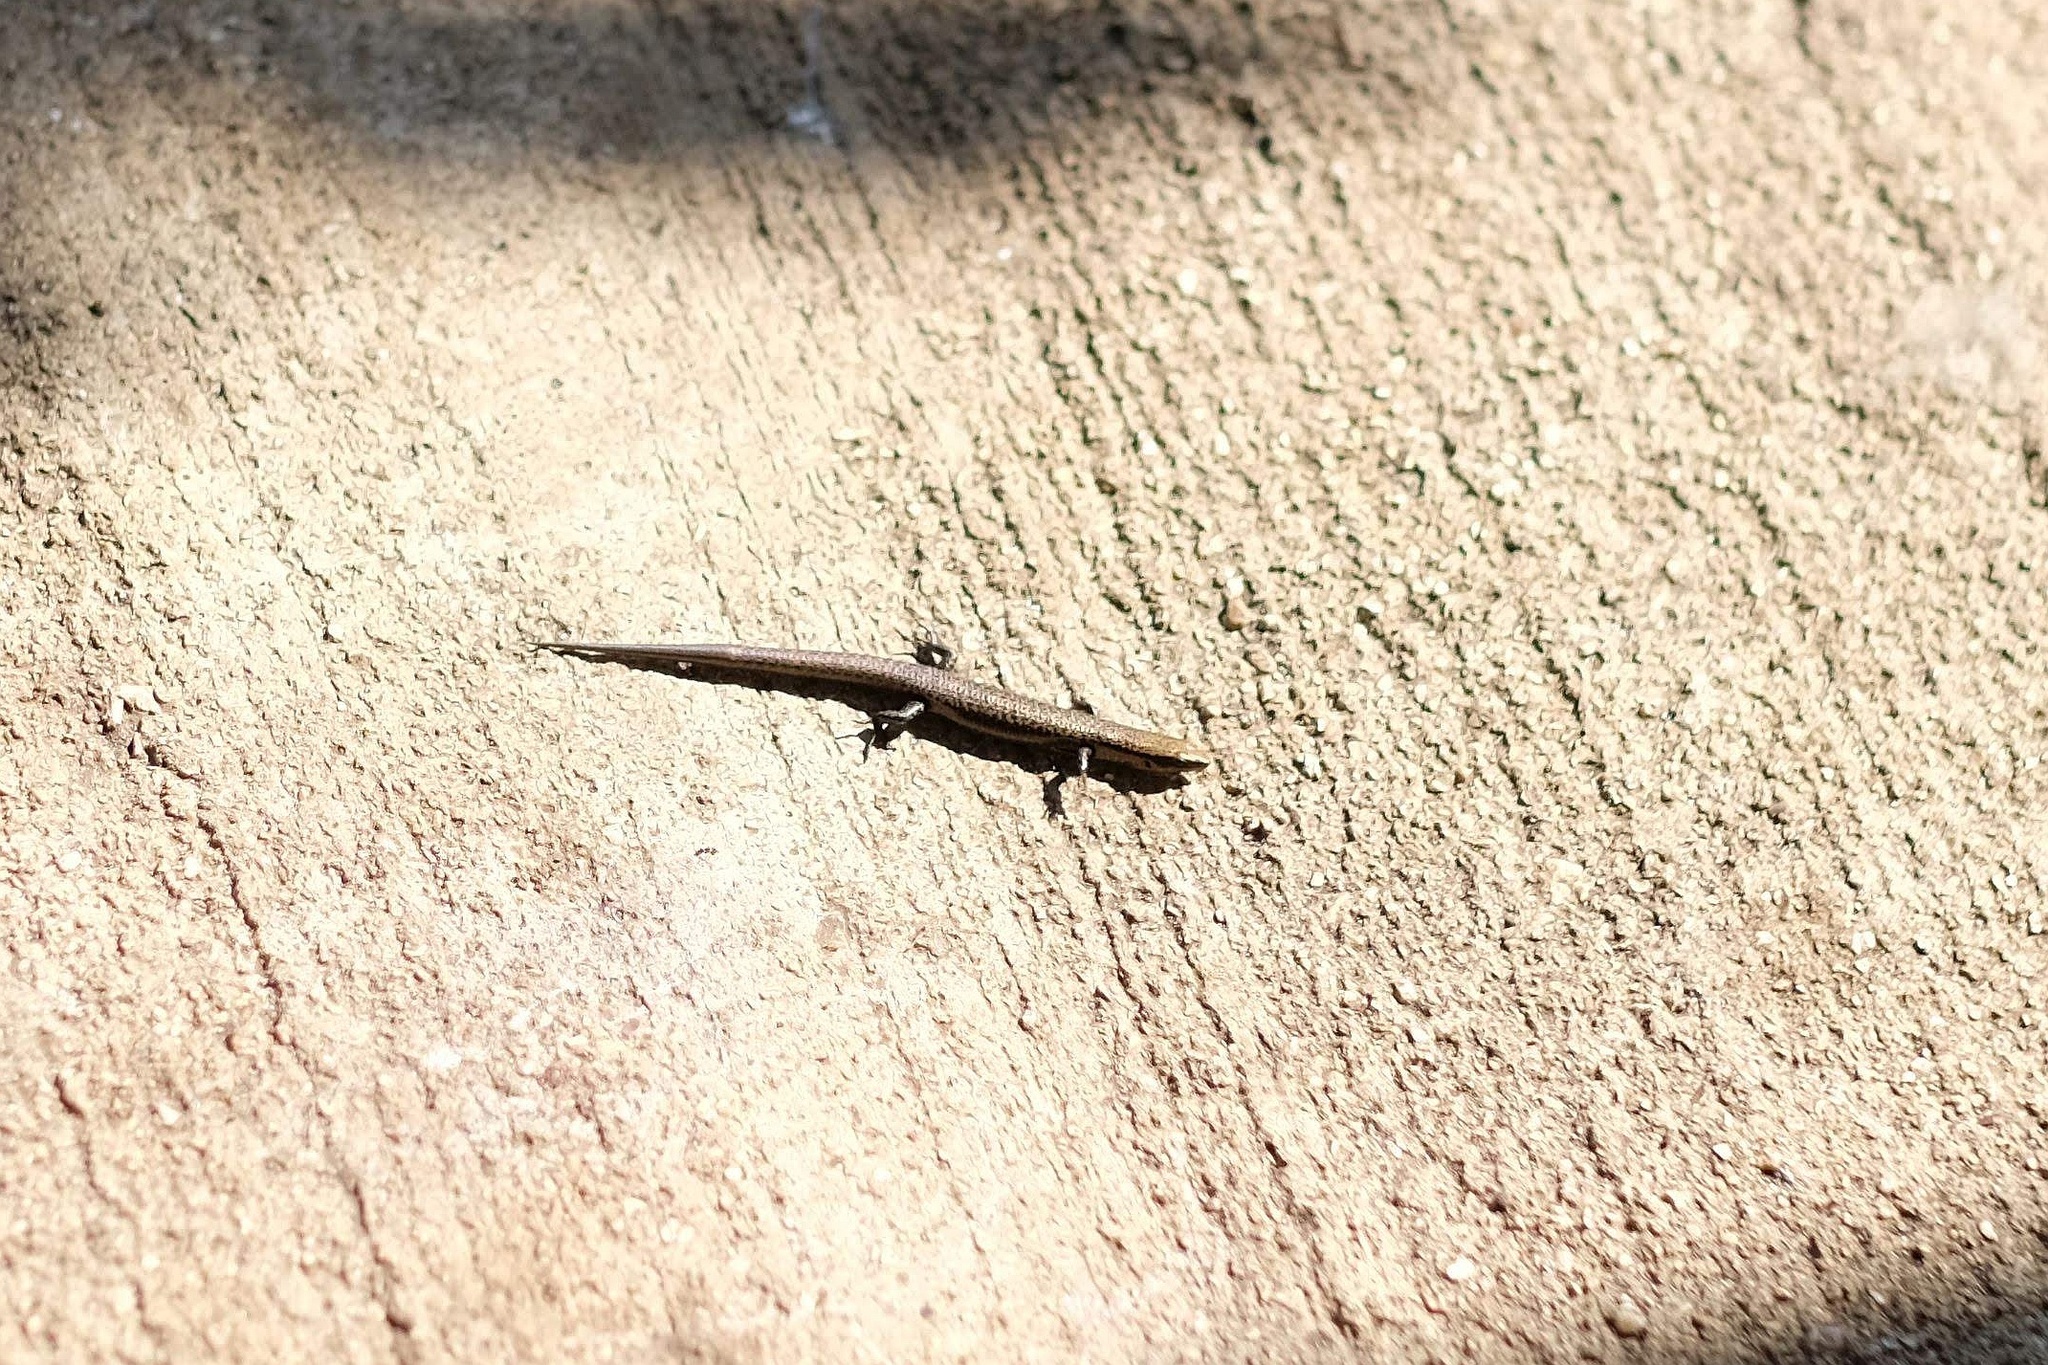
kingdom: Animalia
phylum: Chordata
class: Squamata
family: Scincidae
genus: Caledoniscincus
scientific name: Caledoniscincus atropunctatus
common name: Speckled litter skink
